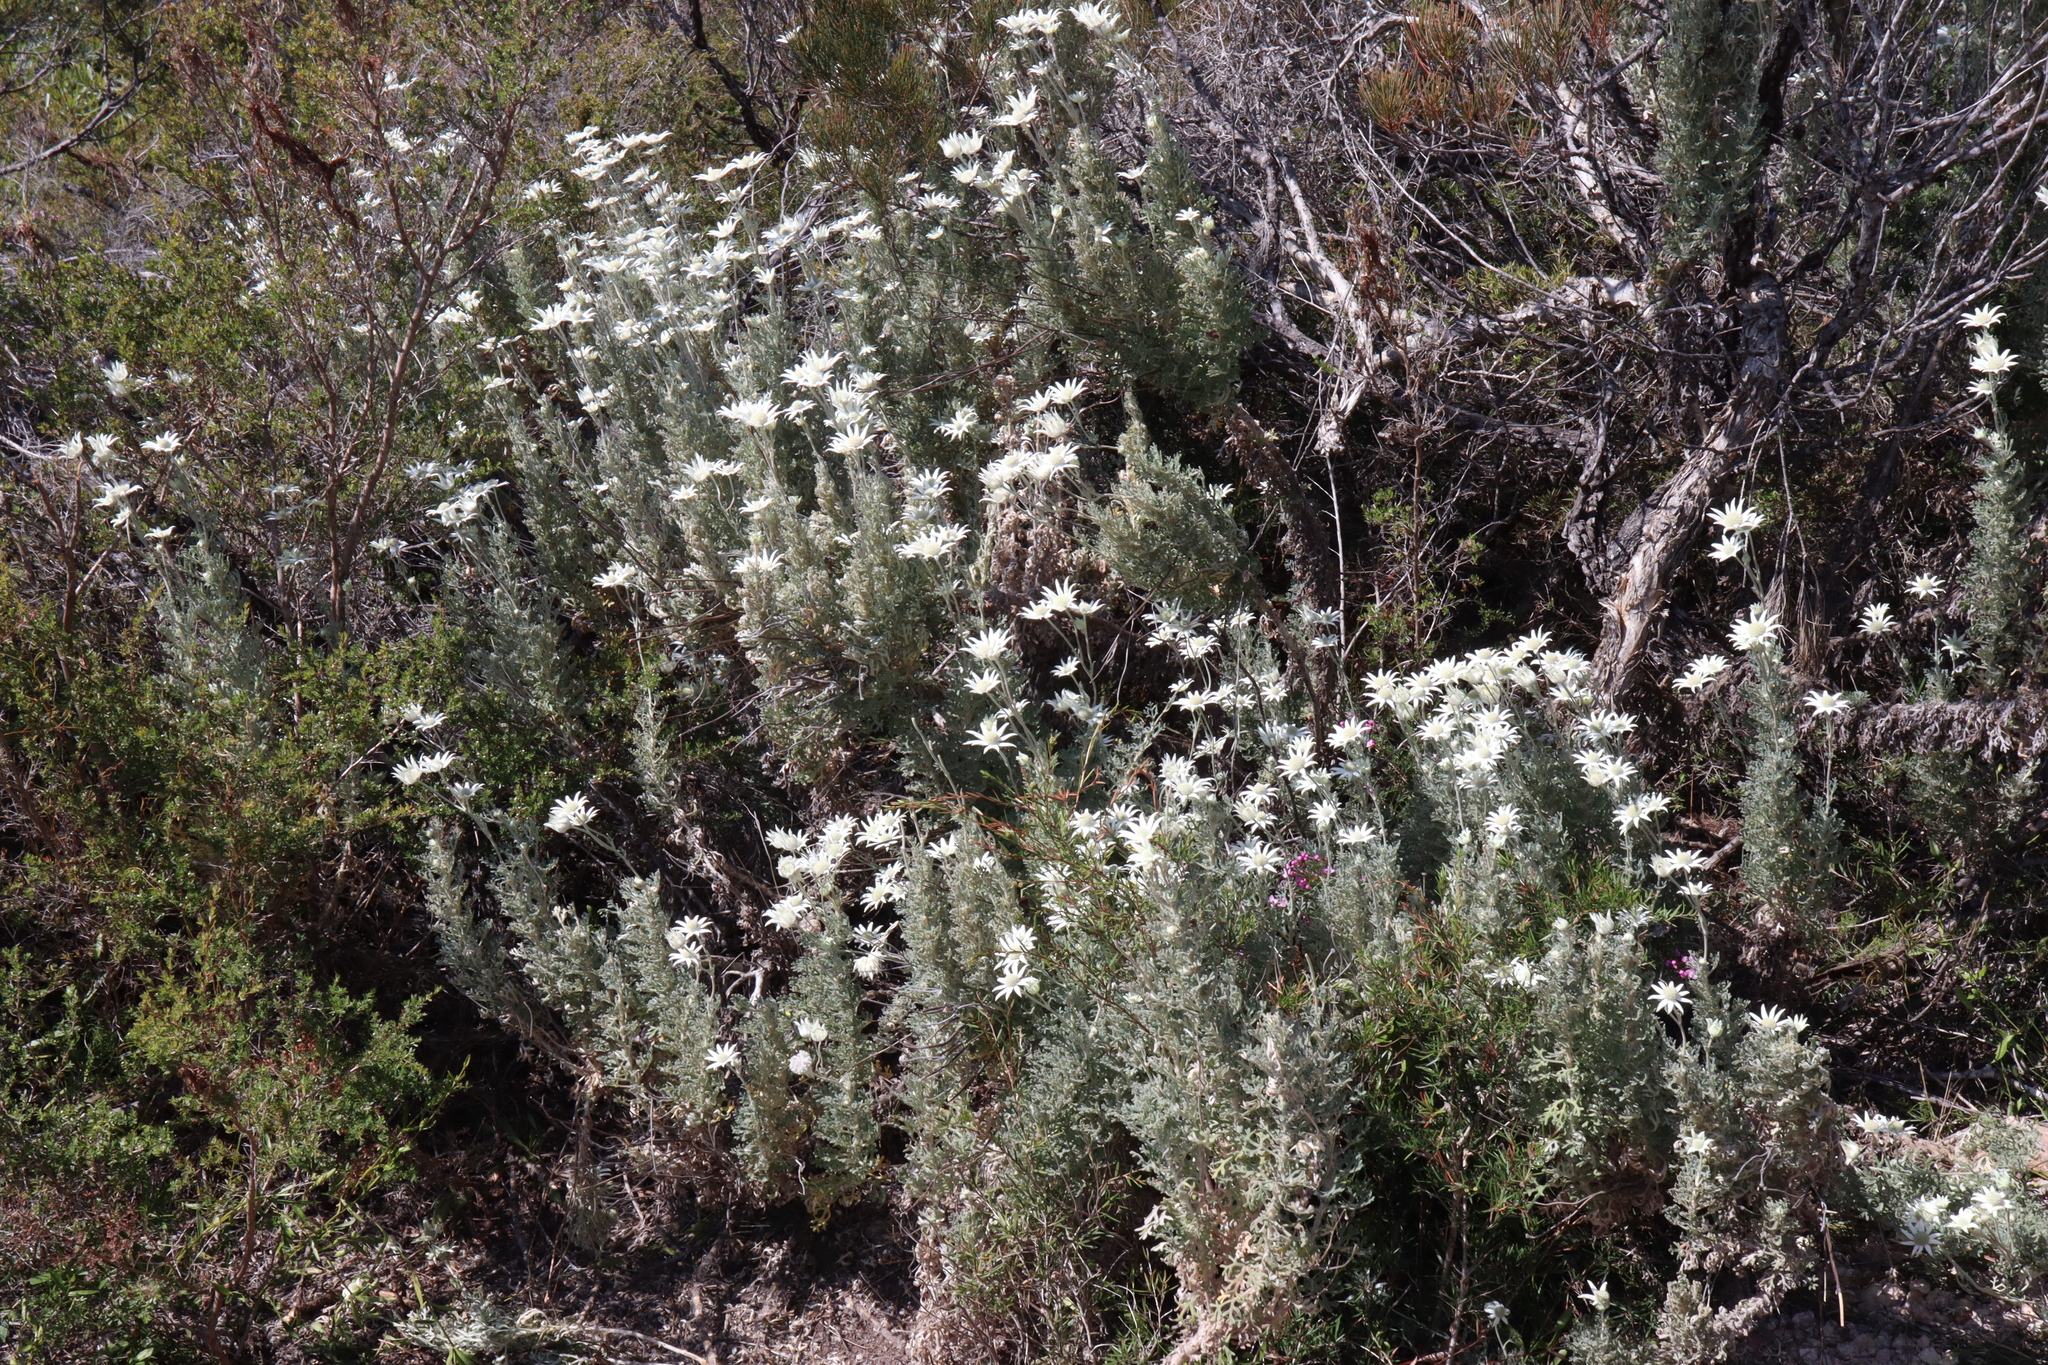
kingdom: Plantae
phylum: Tracheophyta
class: Magnoliopsida
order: Apiales
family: Apiaceae
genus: Actinotus
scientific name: Actinotus helianthi
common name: Flannel-flower
